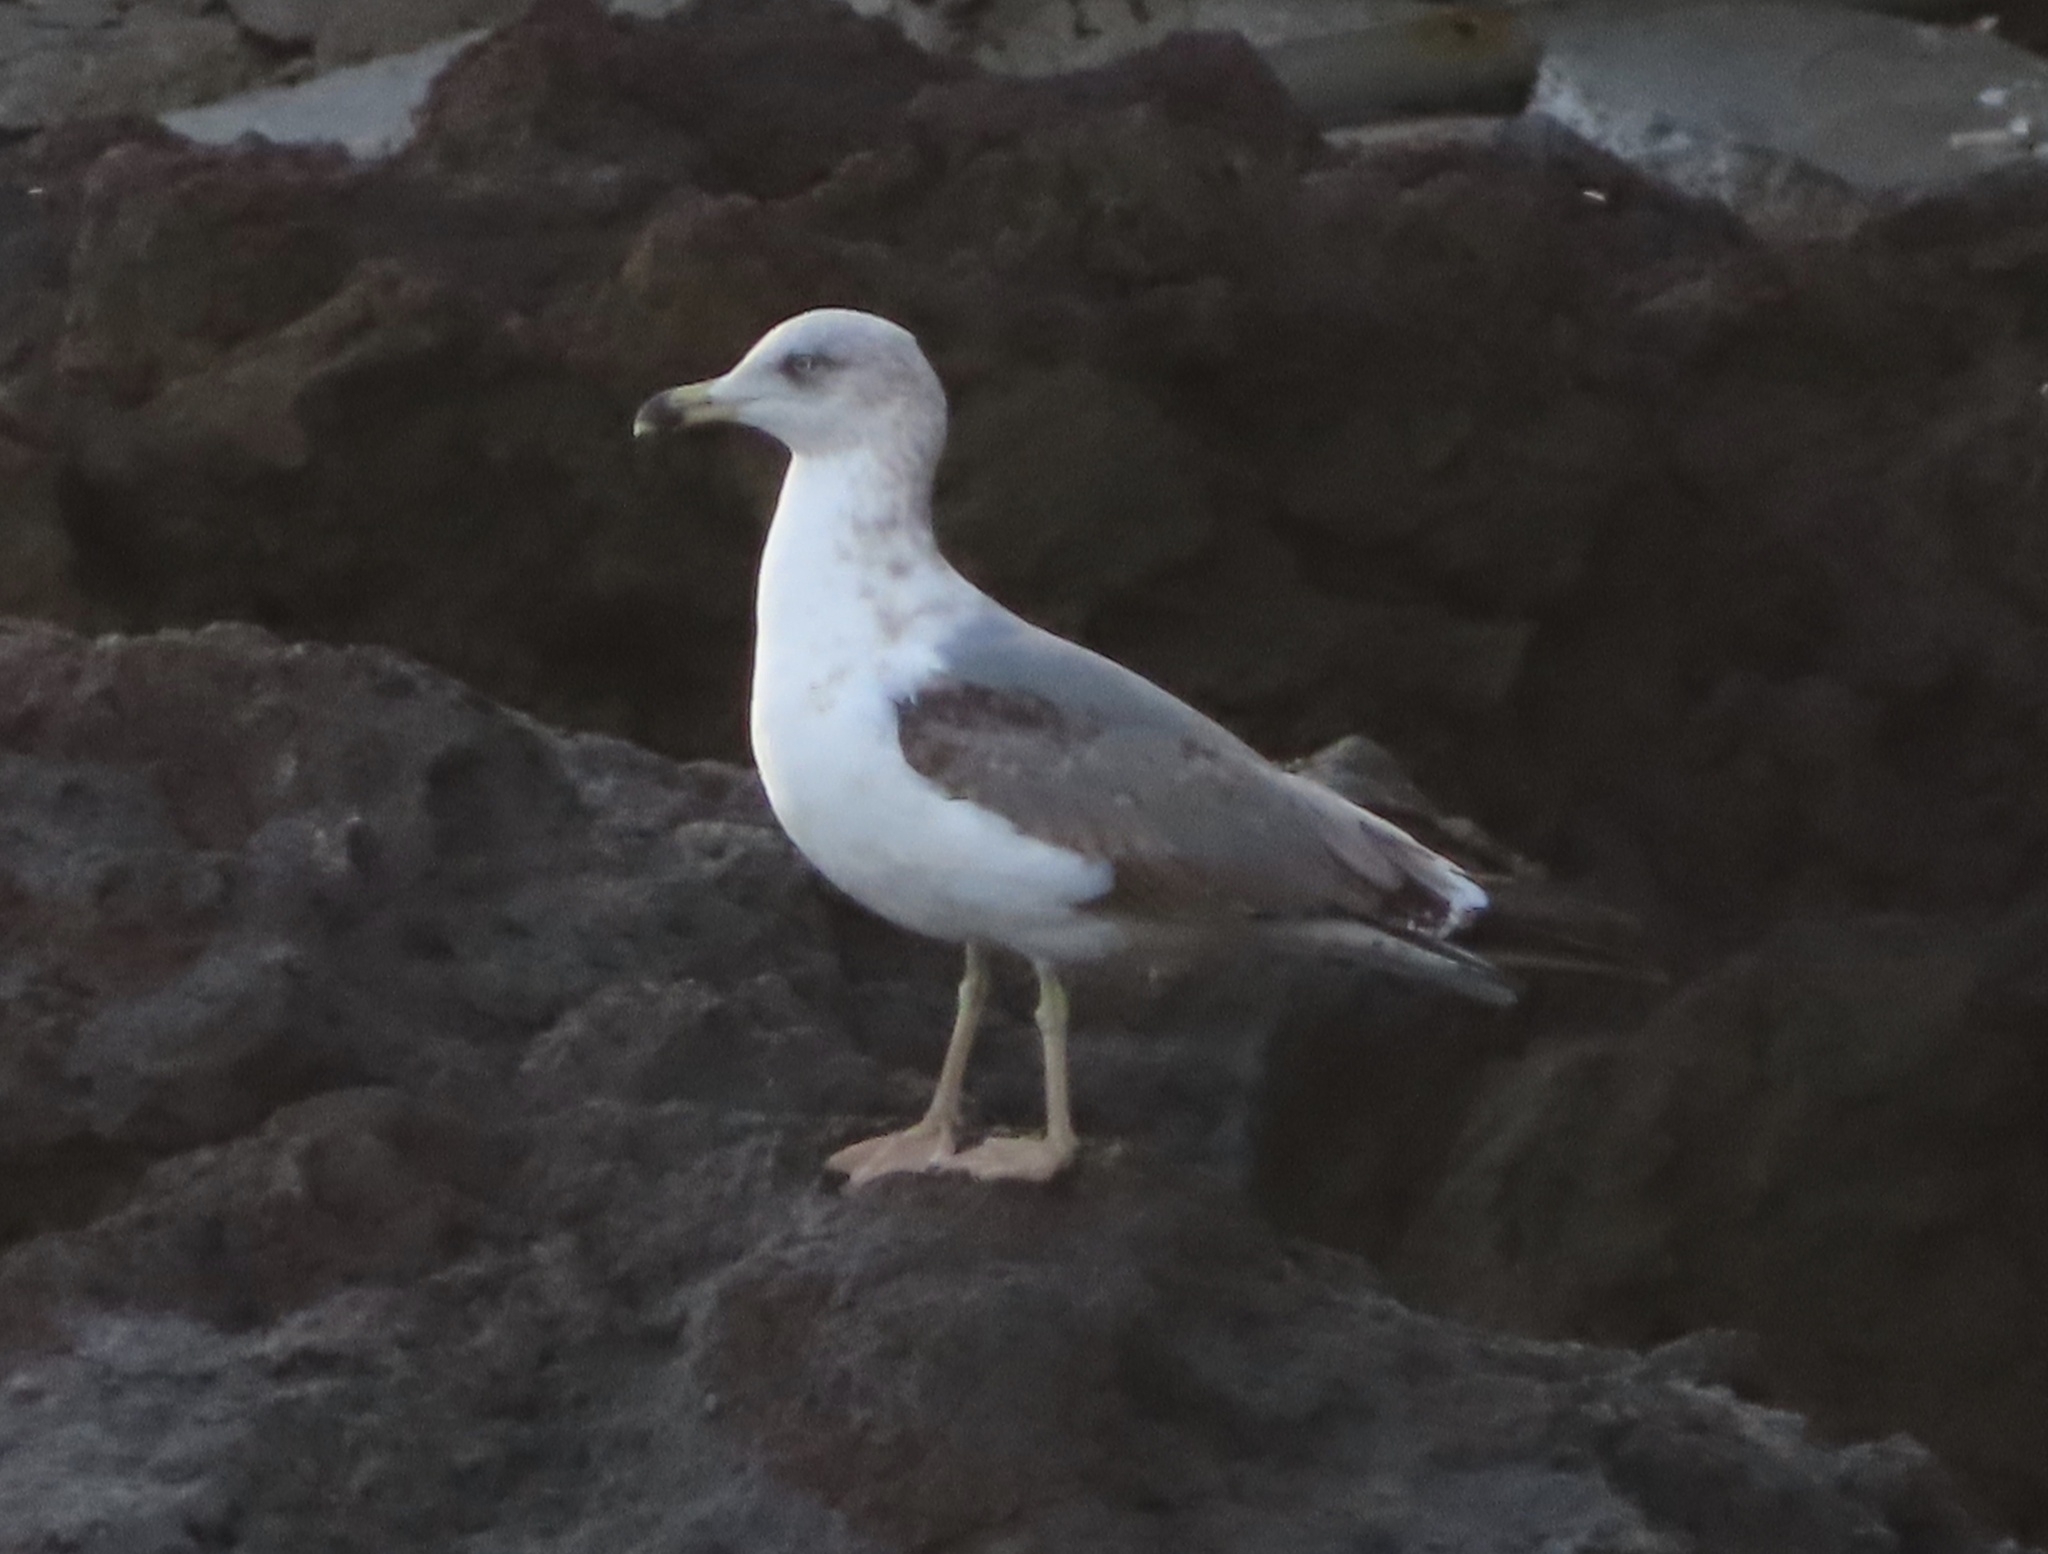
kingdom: Animalia
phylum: Chordata
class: Aves
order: Charadriiformes
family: Laridae
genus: Larus
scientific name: Larus michahellis
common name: Yellow-legged gull
